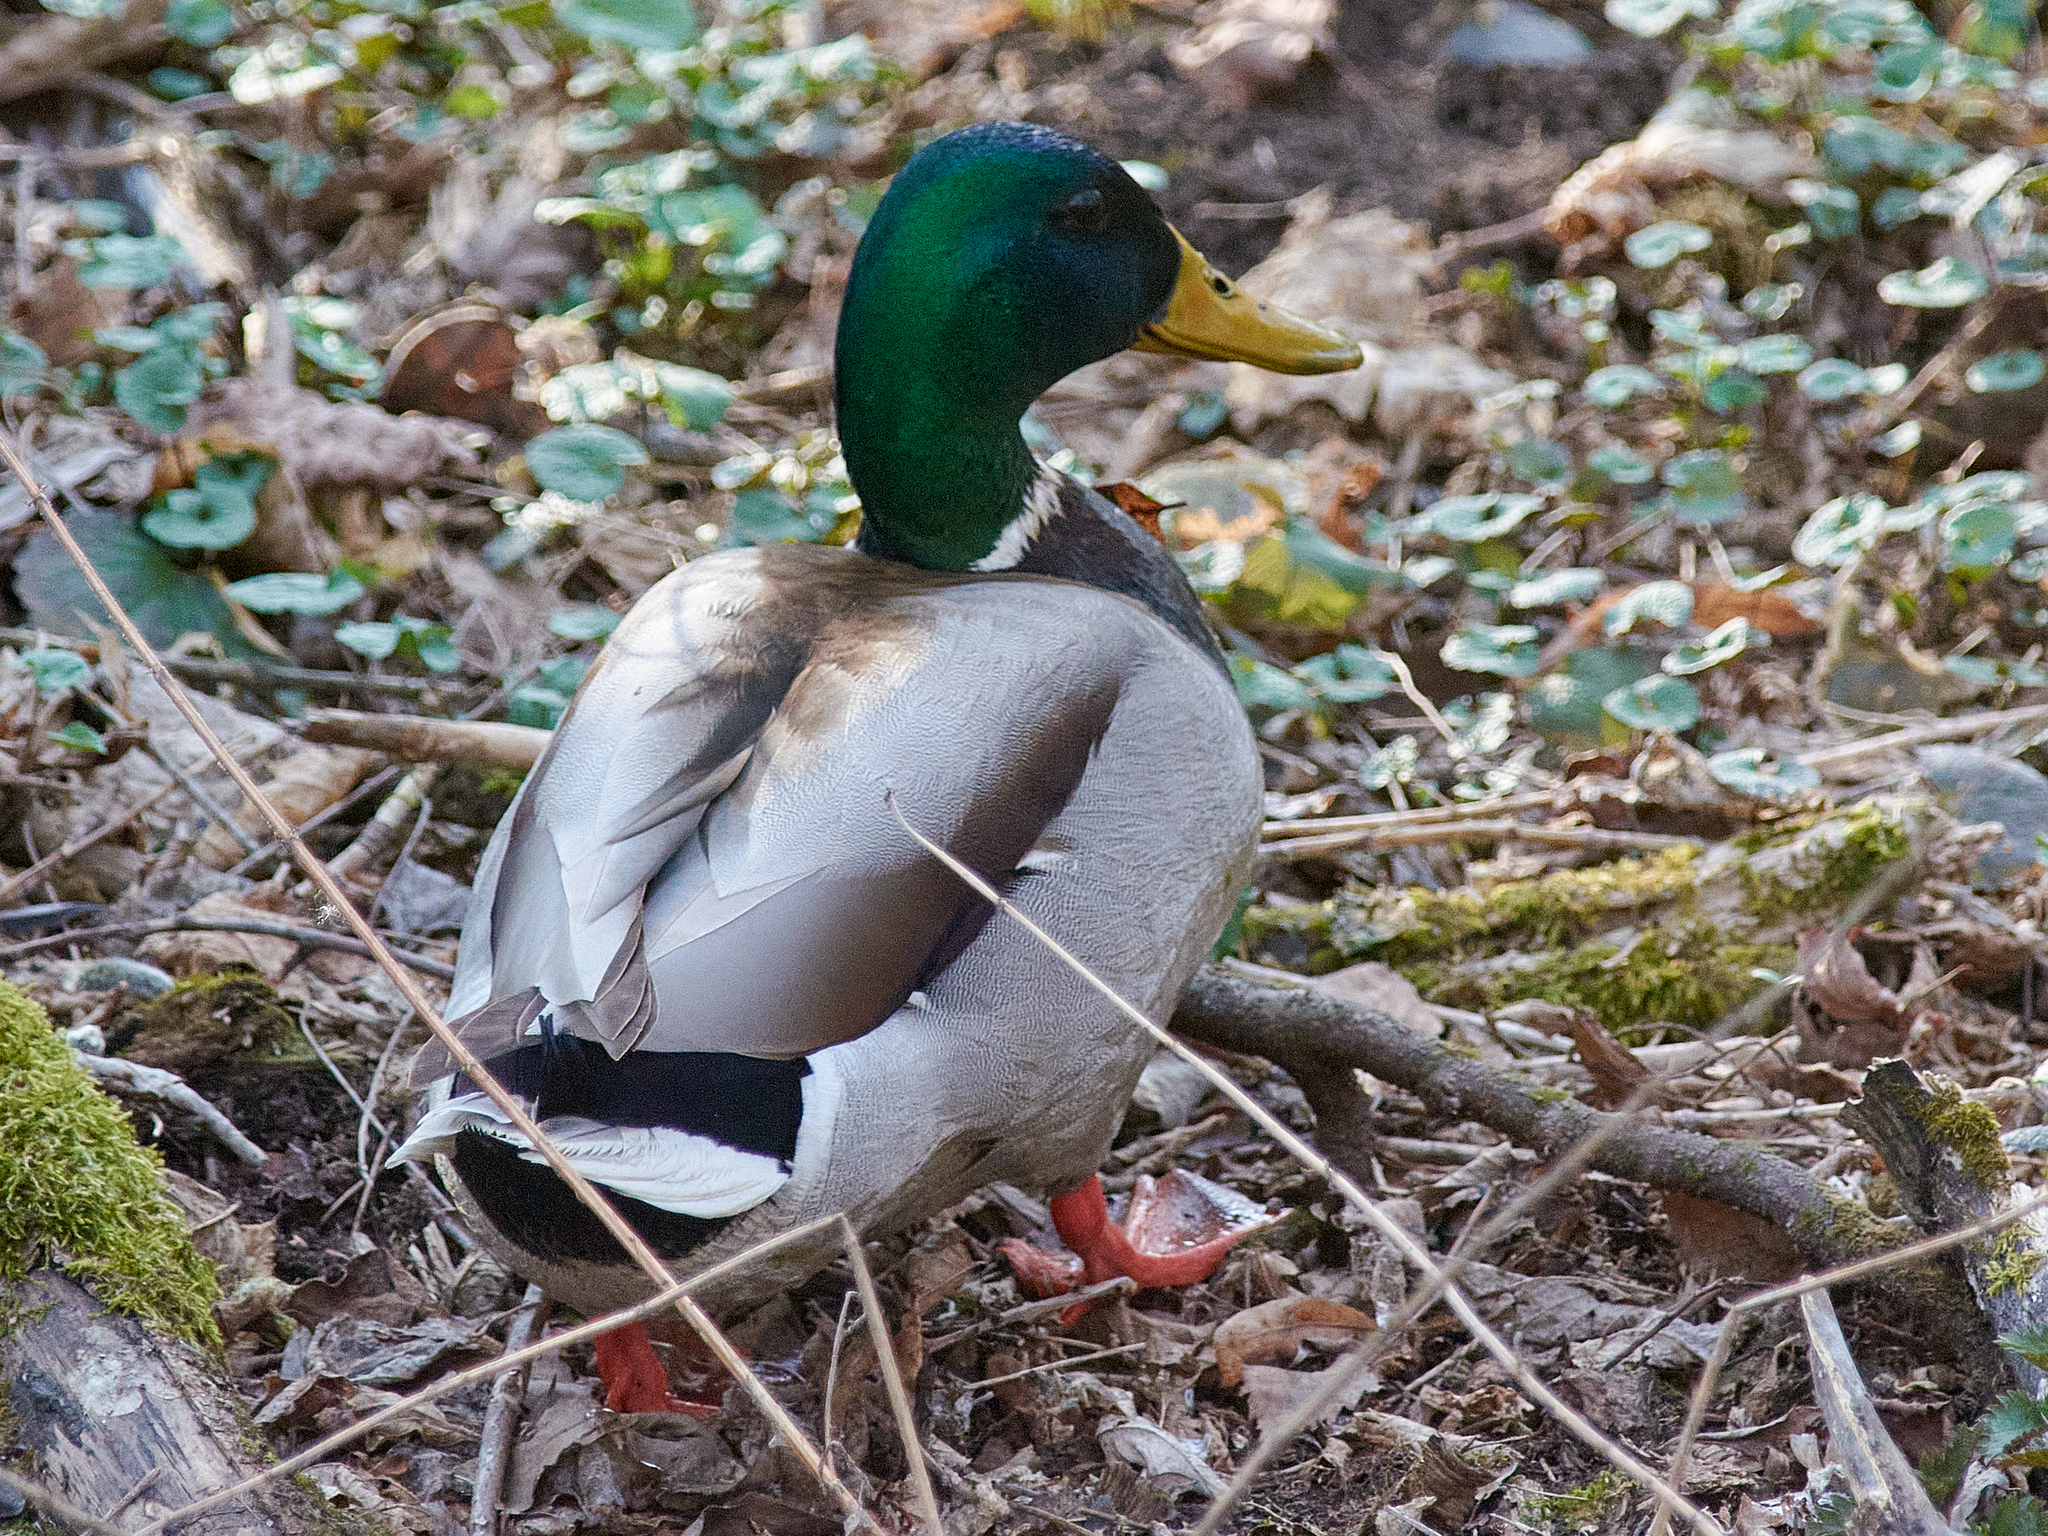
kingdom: Animalia
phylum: Chordata
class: Aves
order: Anseriformes
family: Anatidae
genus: Anas
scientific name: Anas platyrhynchos
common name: Mallard
